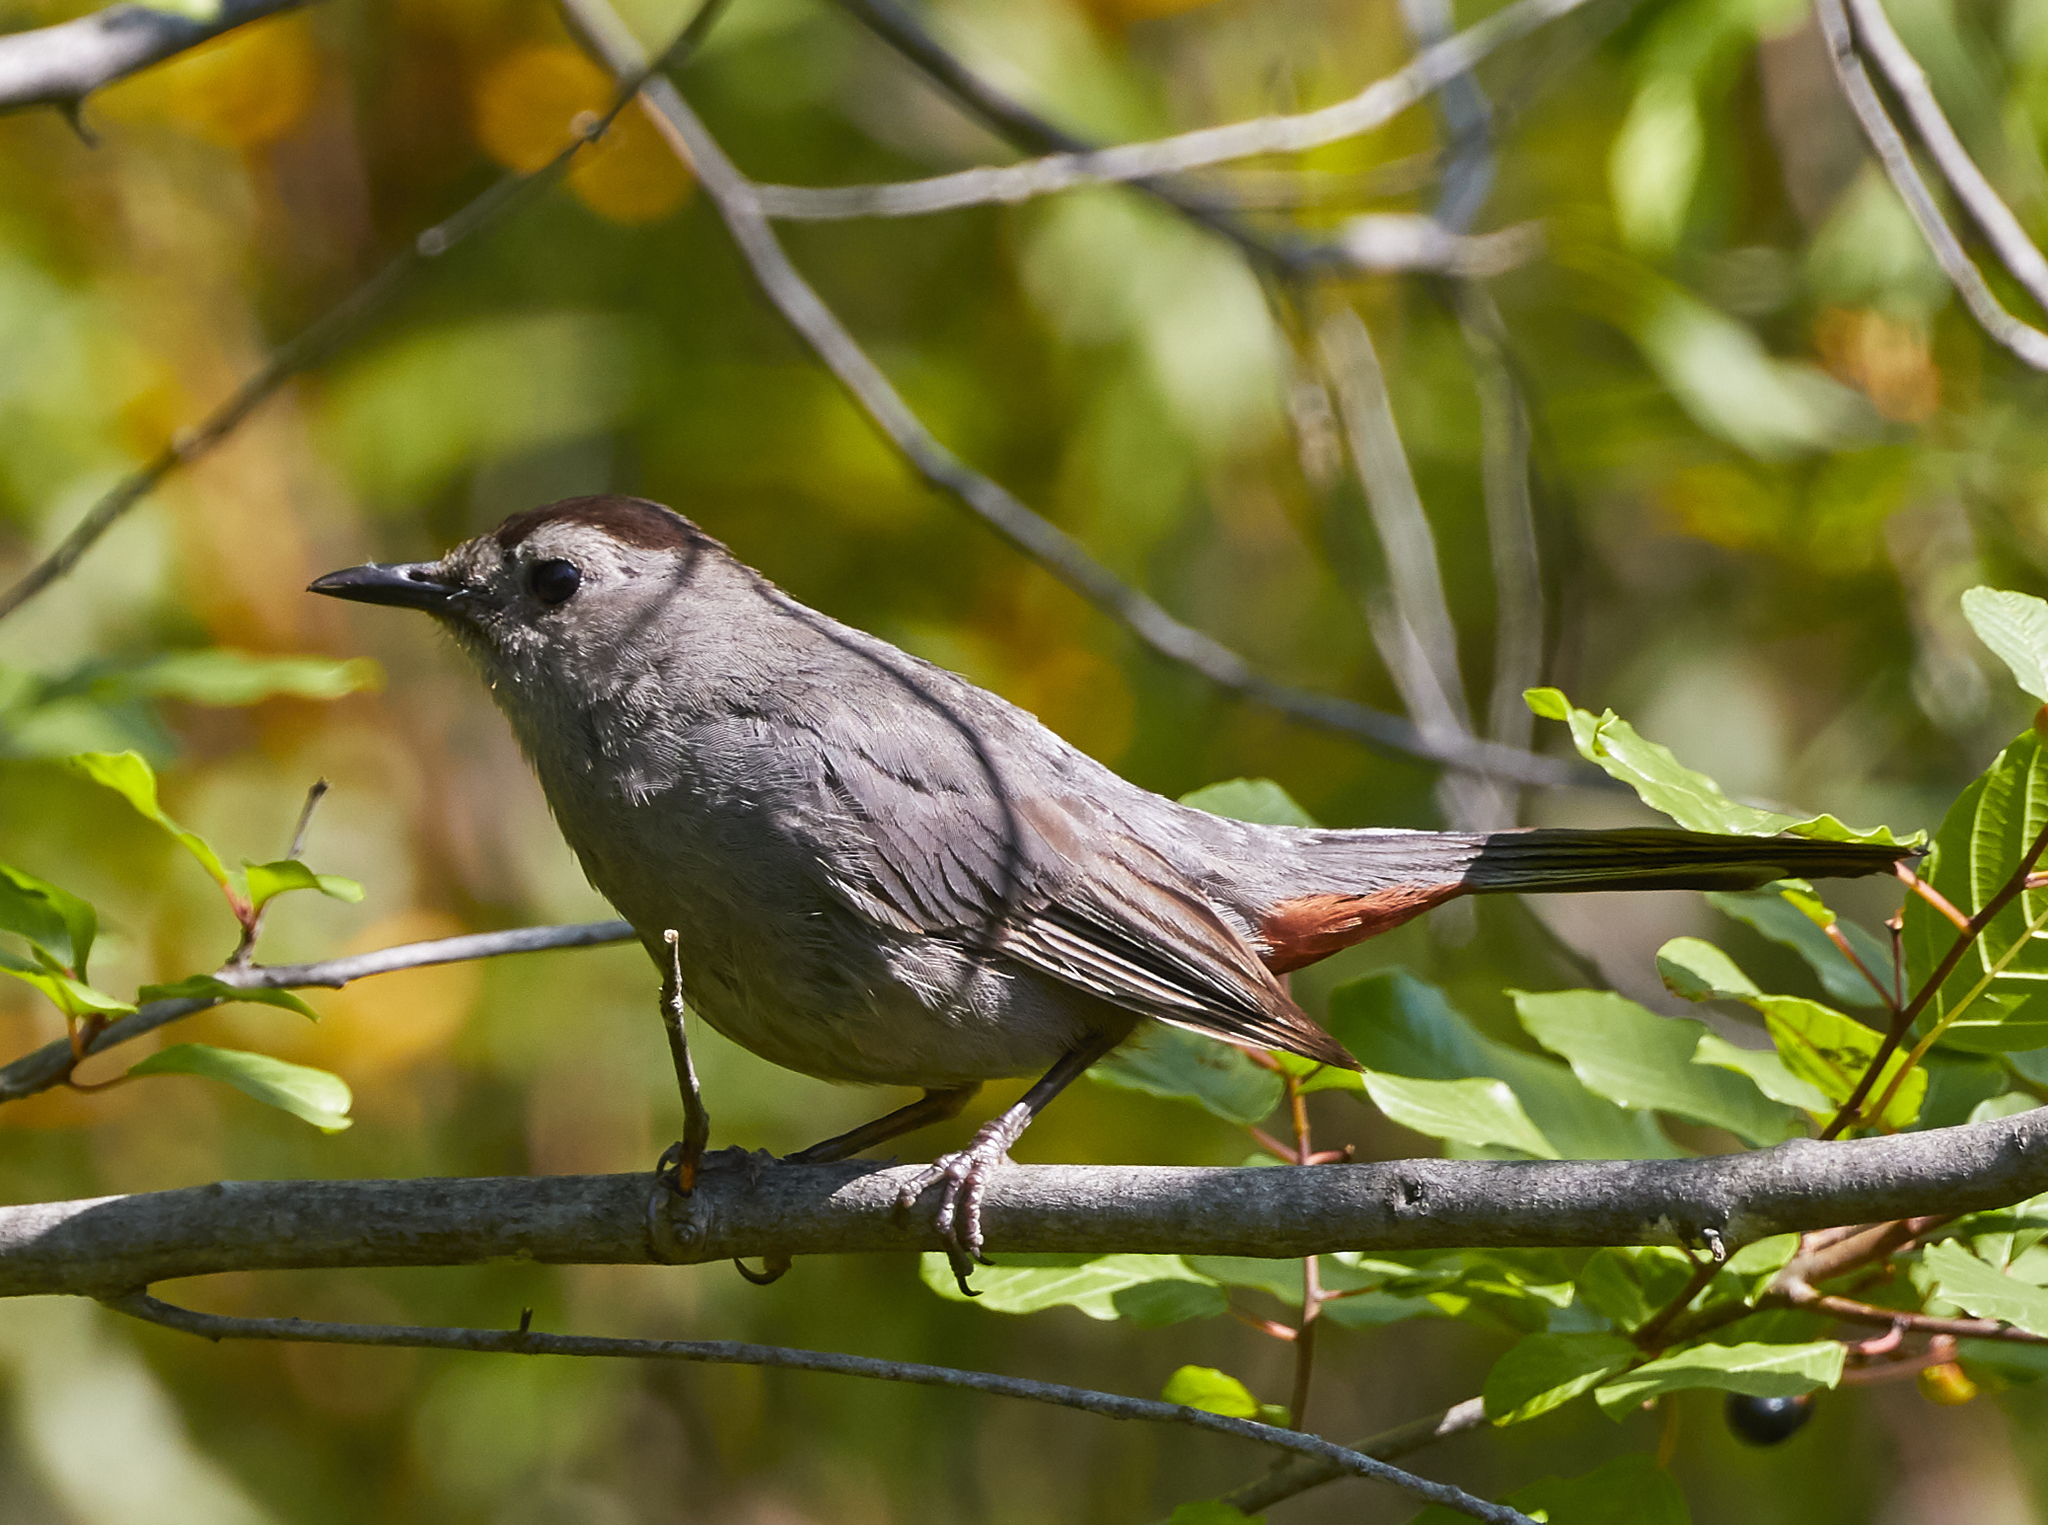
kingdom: Animalia
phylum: Chordata
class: Aves
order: Passeriformes
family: Mimidae
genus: Dumetella
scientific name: Dumetella carolinensis
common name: Gray catbird
